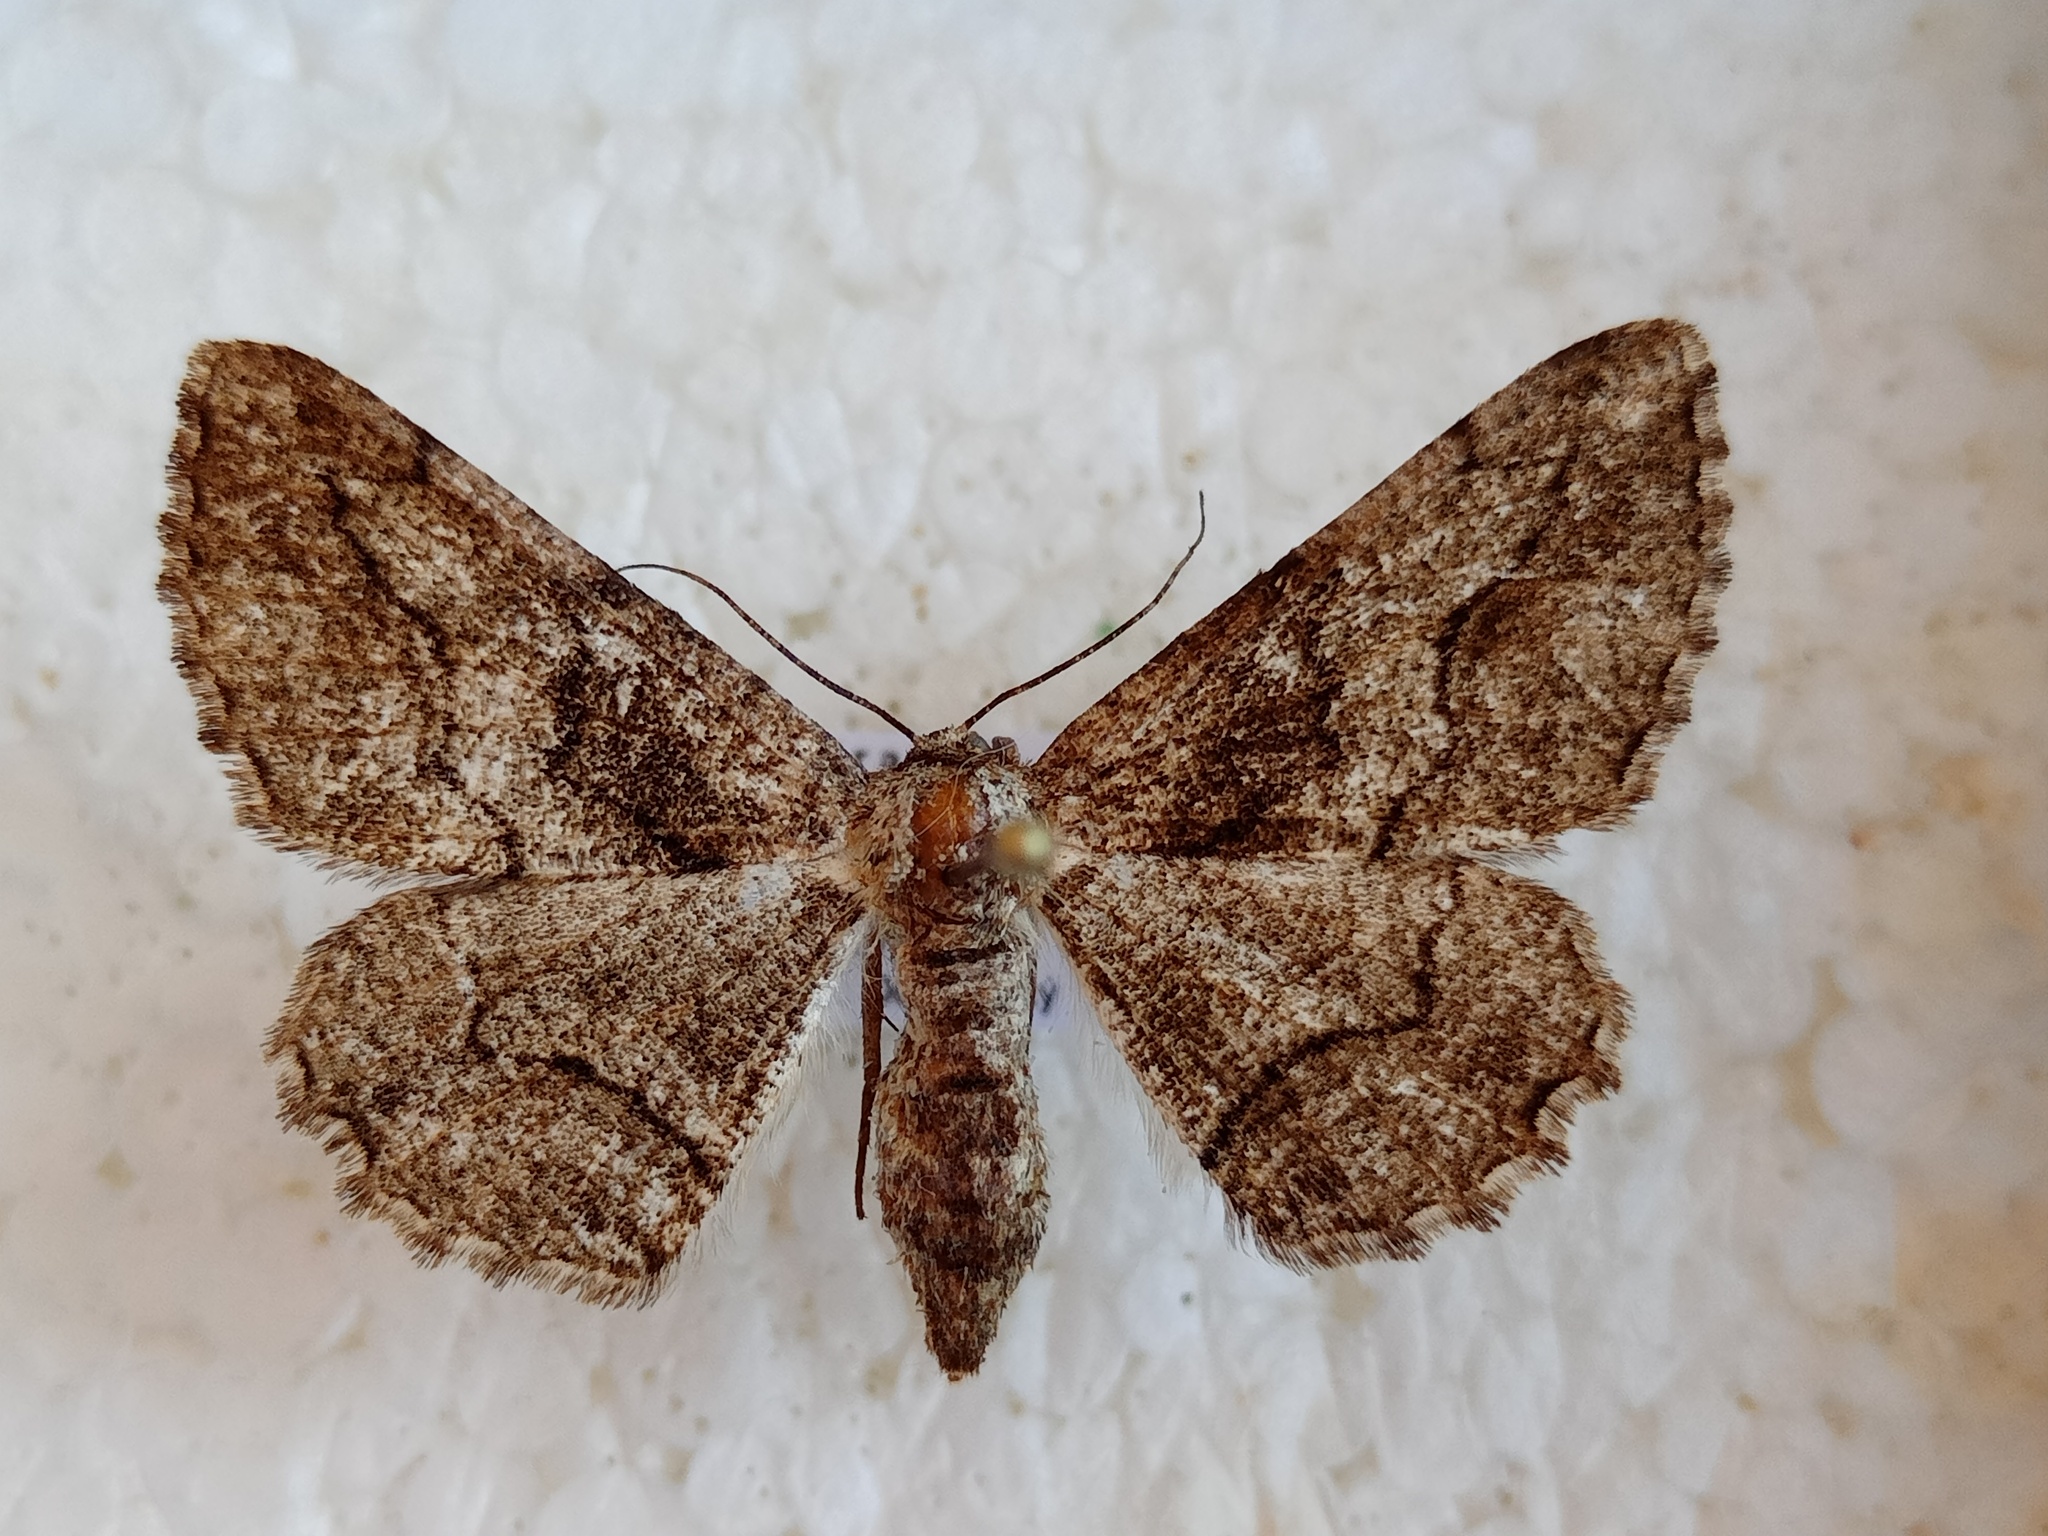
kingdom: Animalia
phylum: Arthropoda
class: Insecta
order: Lepidoptera
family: Geometridae
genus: Synopsia
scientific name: Synopsia sociaria
